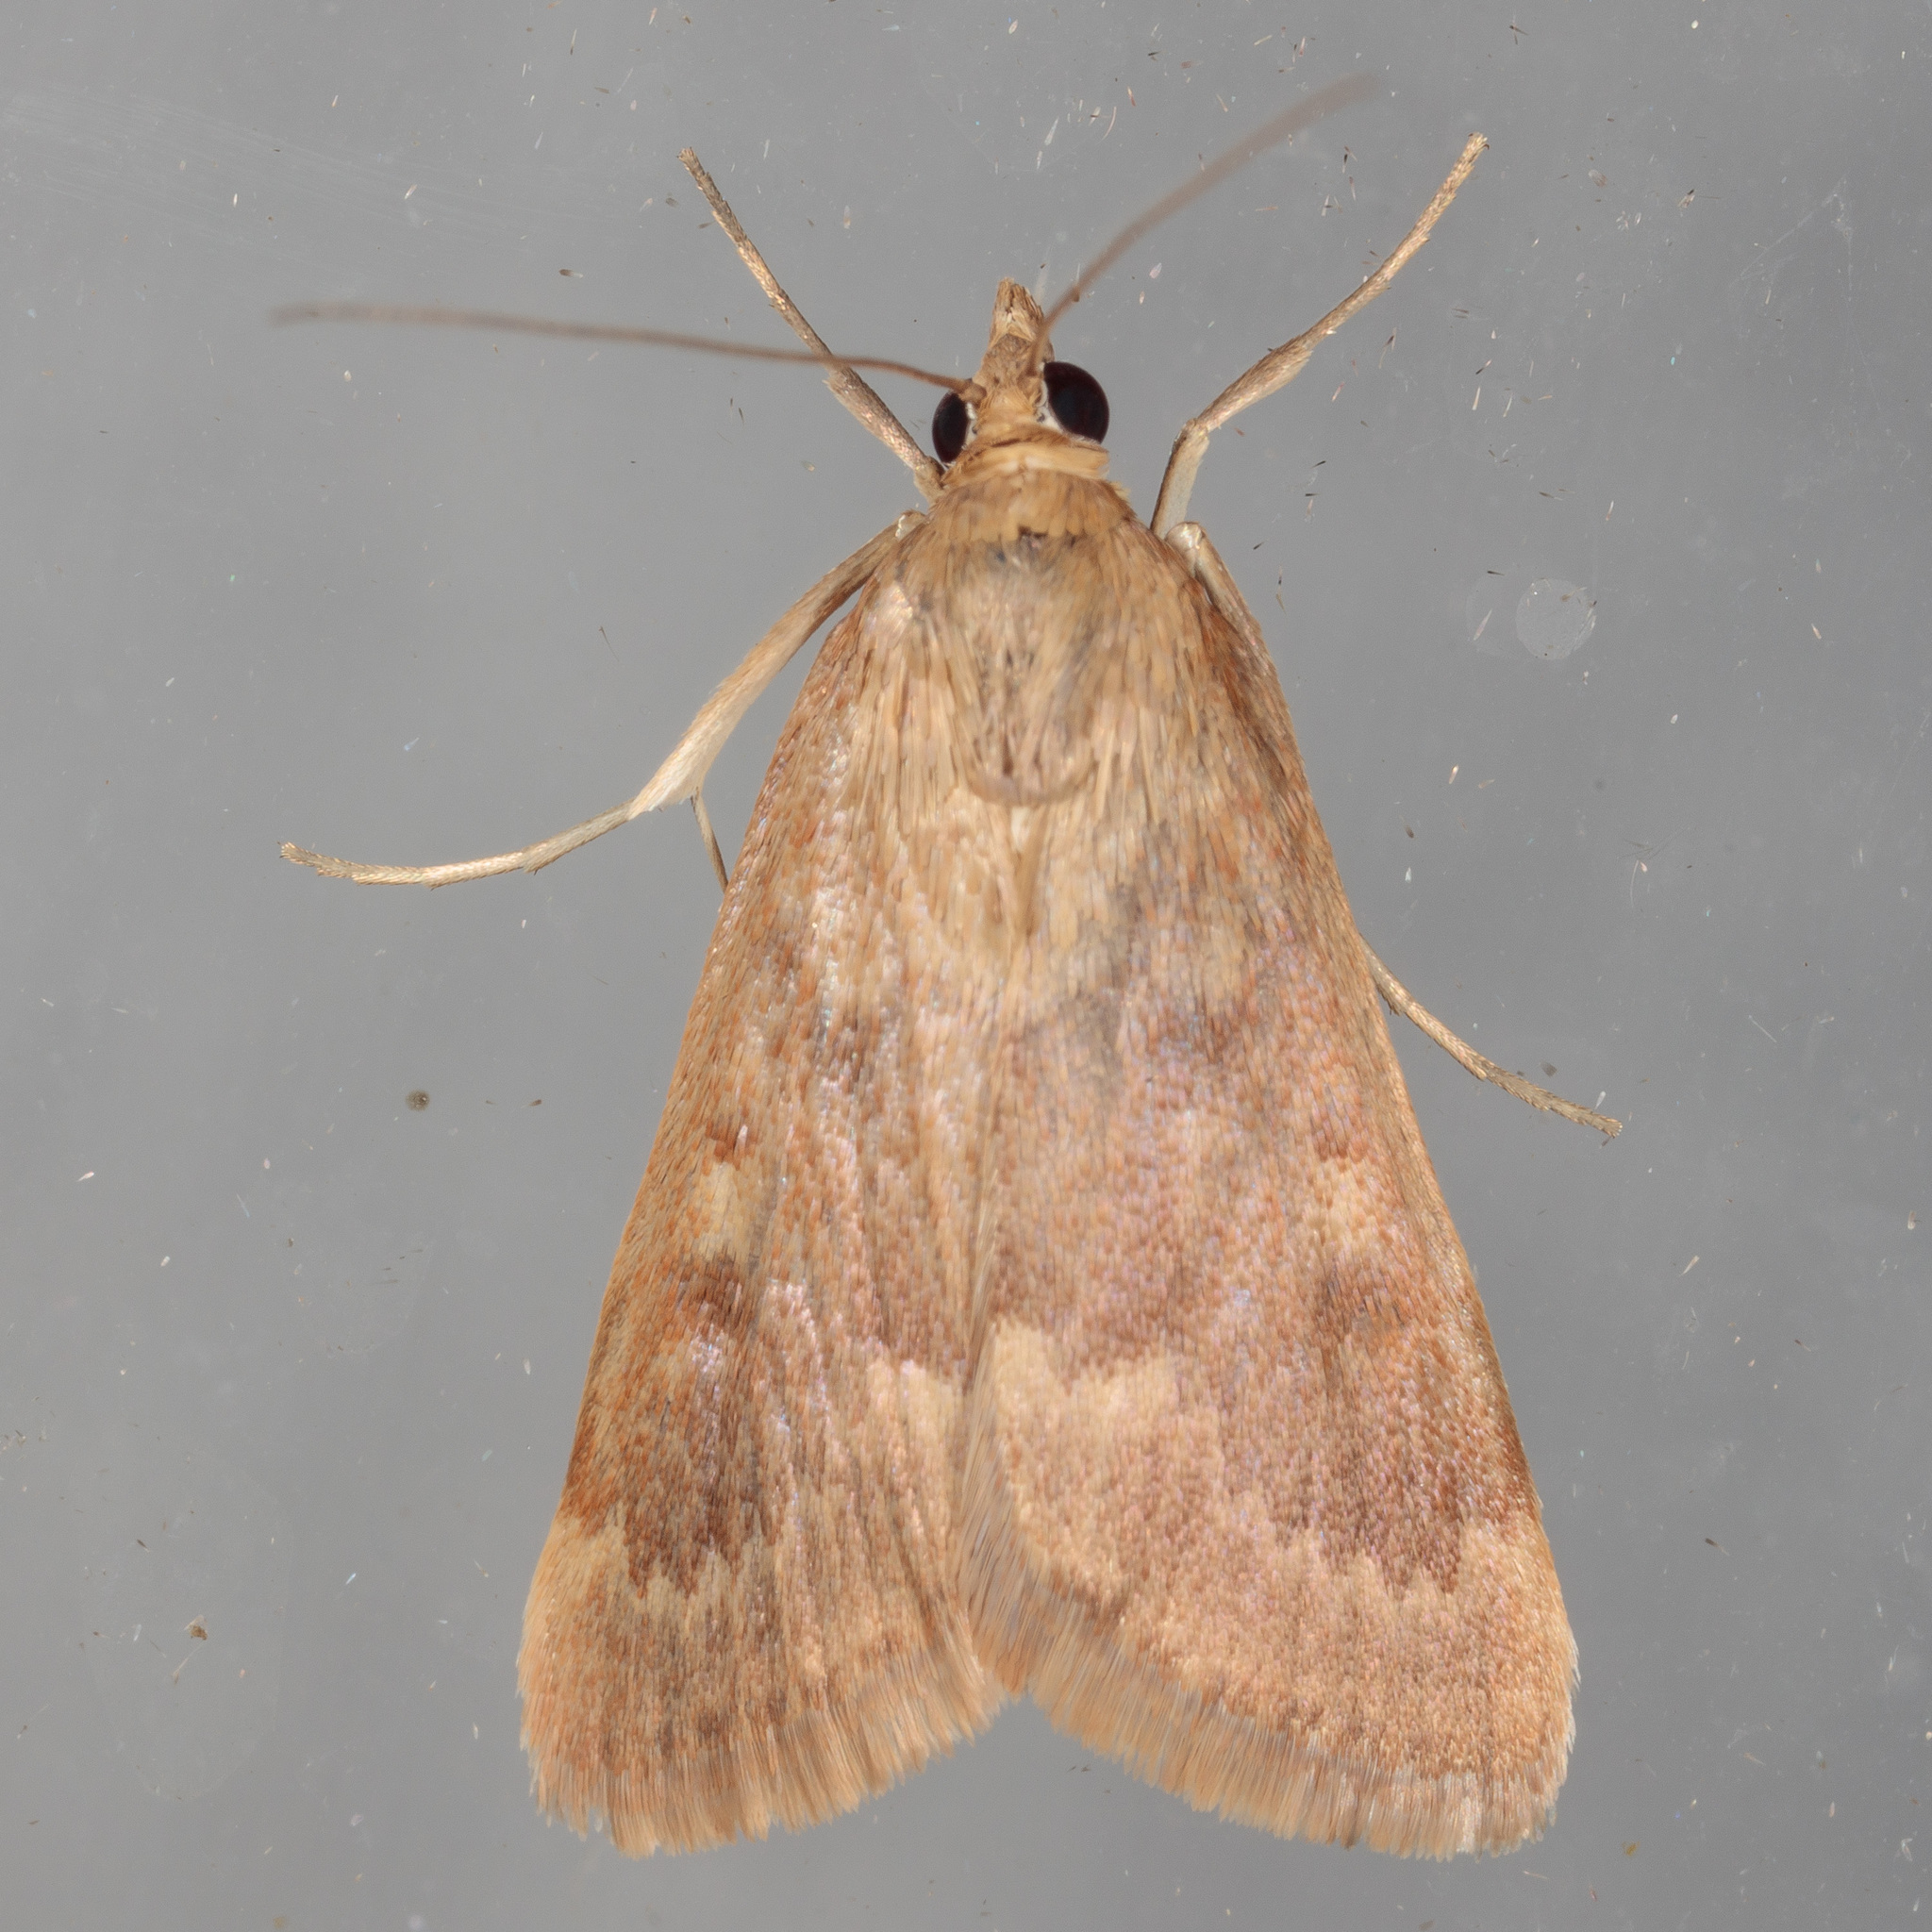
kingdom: Animalia
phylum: Arthropoda
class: Insecta
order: Lepidoptera
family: Crambidae
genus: Achyra
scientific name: Achyra rantalis
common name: Garden webworm
